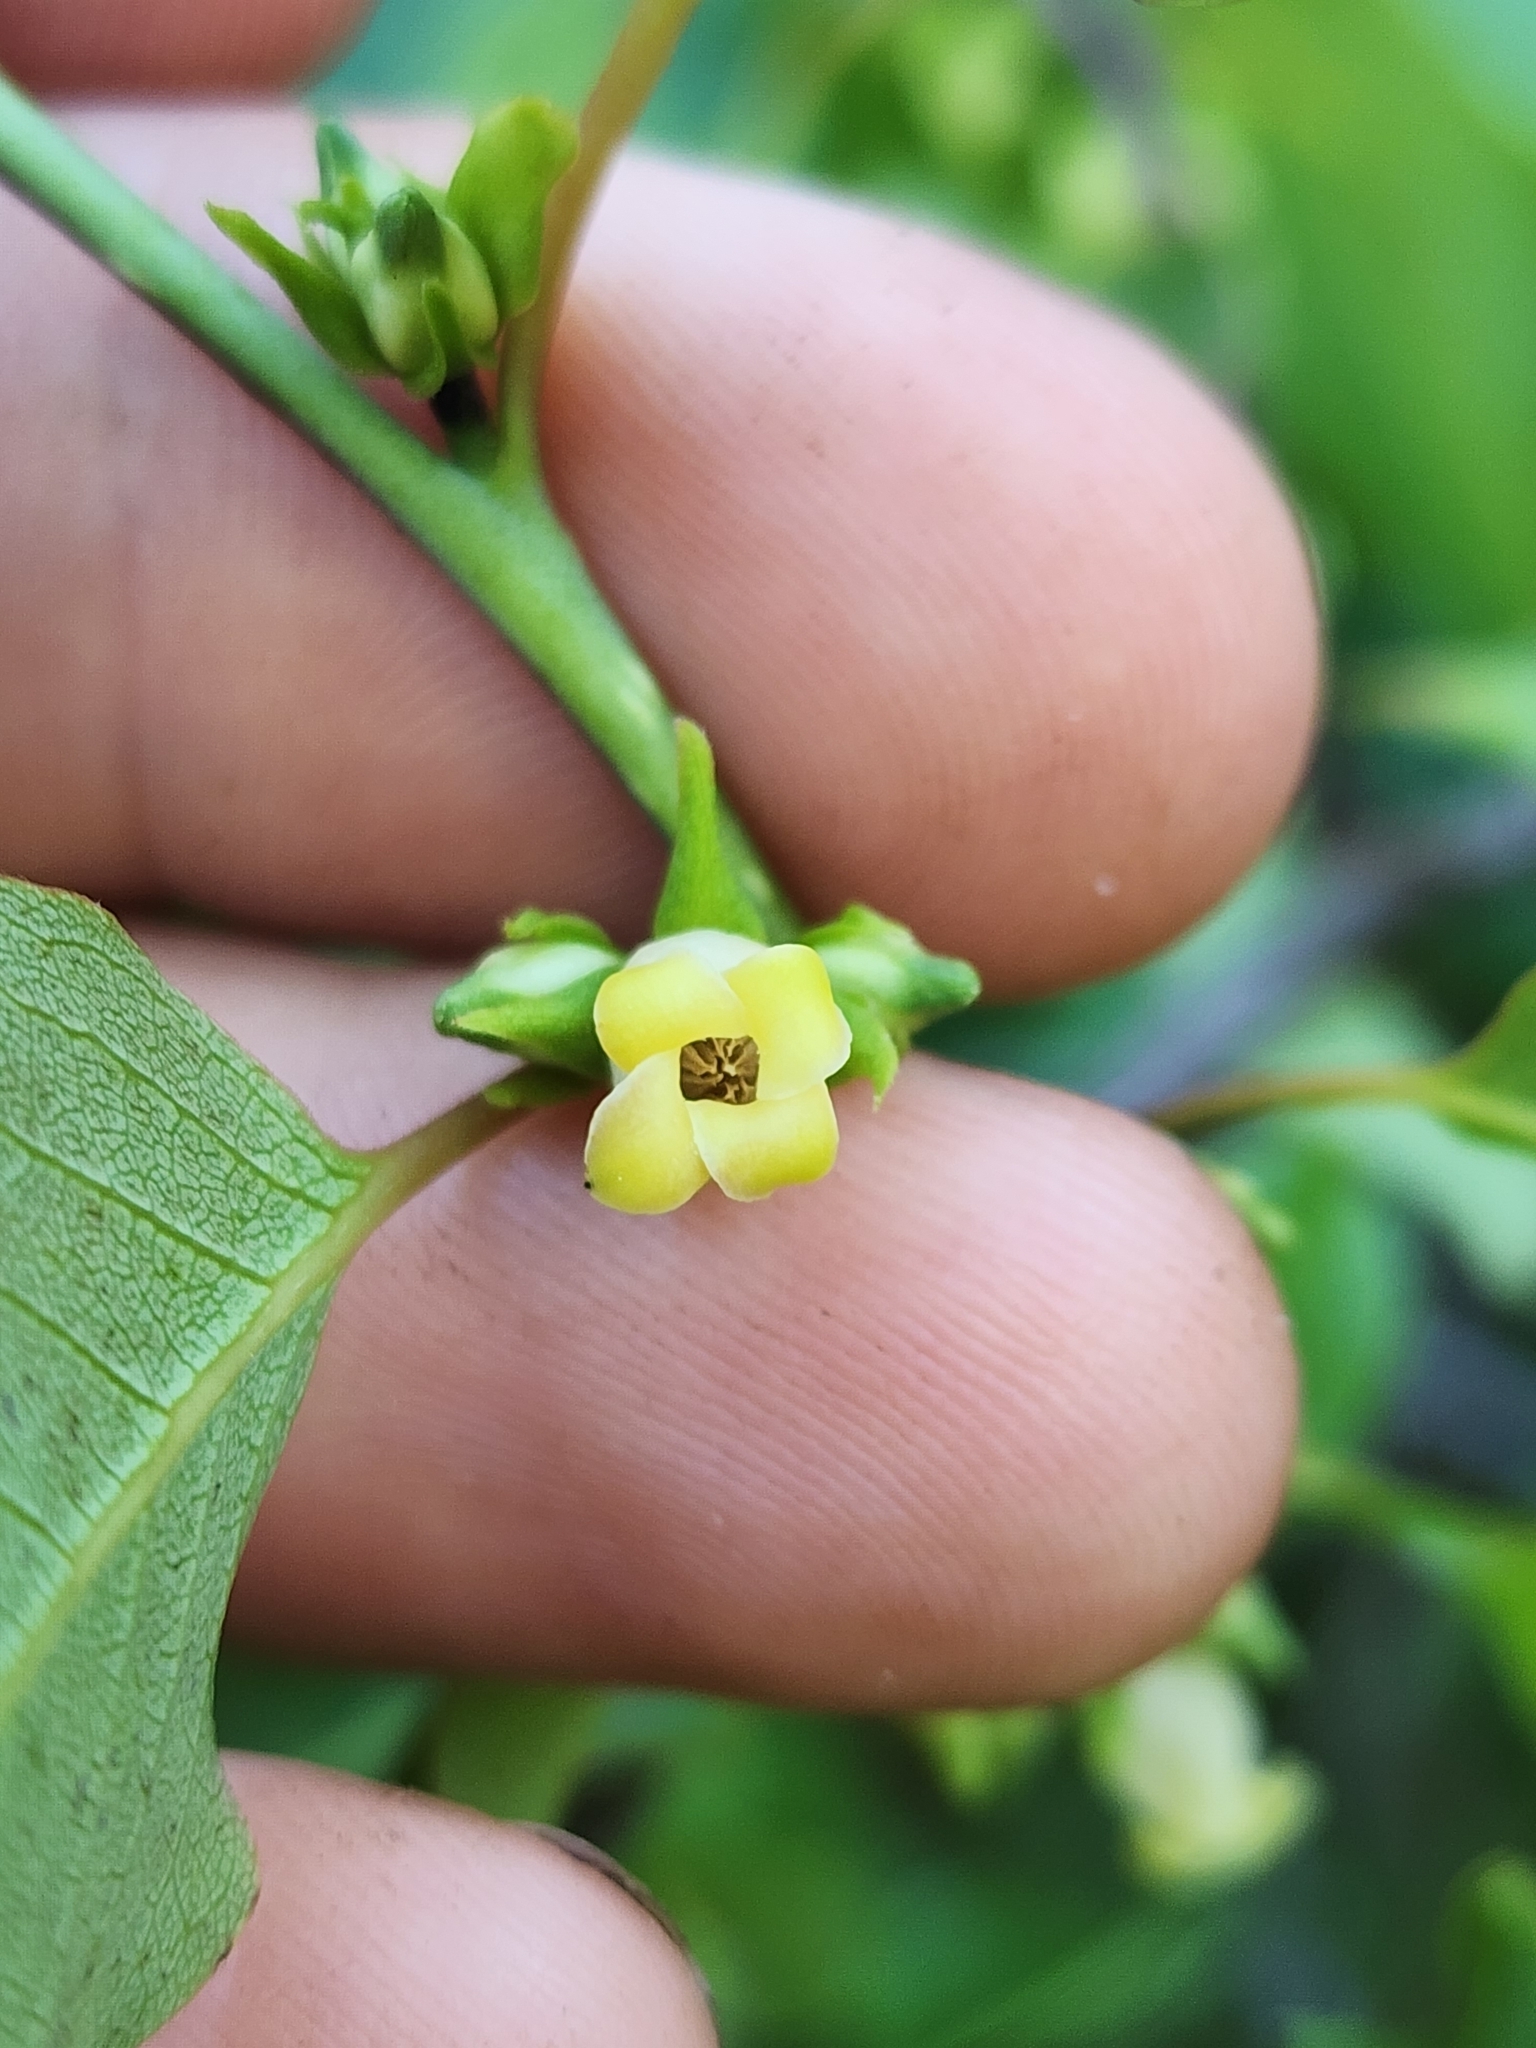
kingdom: Plantae
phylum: Tracheophyta
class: Magnoliopsida
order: Ericales
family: Ebenaceae
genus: Diospyros
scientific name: Diospyros virginiana
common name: Persimmon
